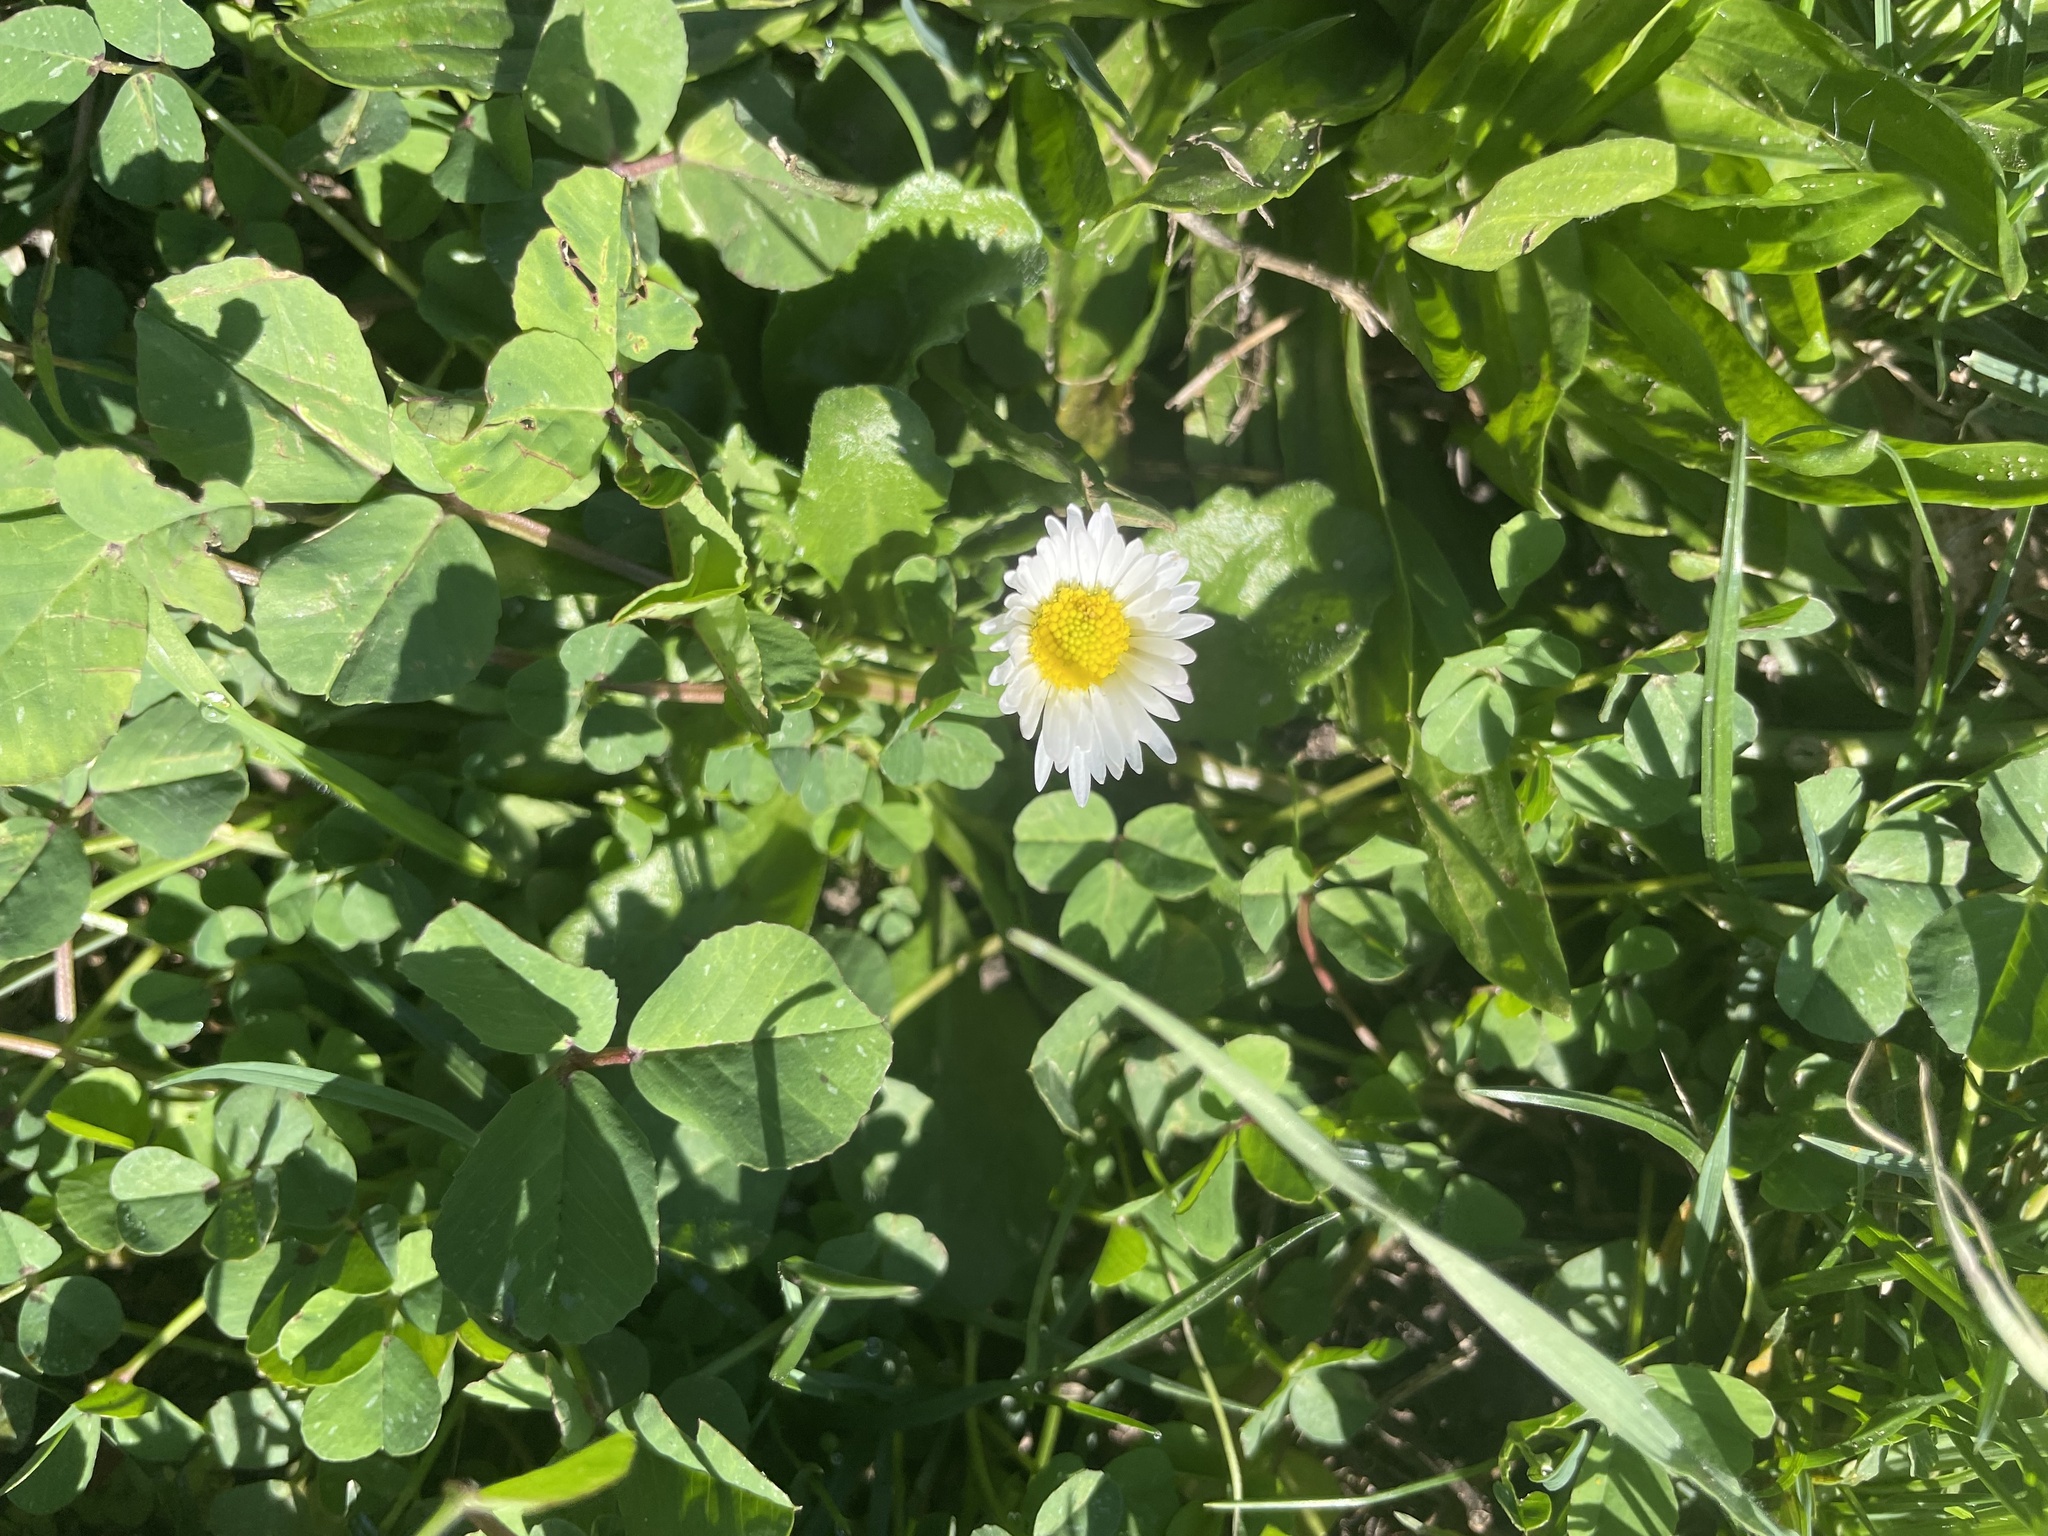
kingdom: Plantae
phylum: Tracheophyta
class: Magnoliopsida
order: Asterales
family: Asteraceae
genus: Bellis
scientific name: Bellis perennis
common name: Lawndaisy
